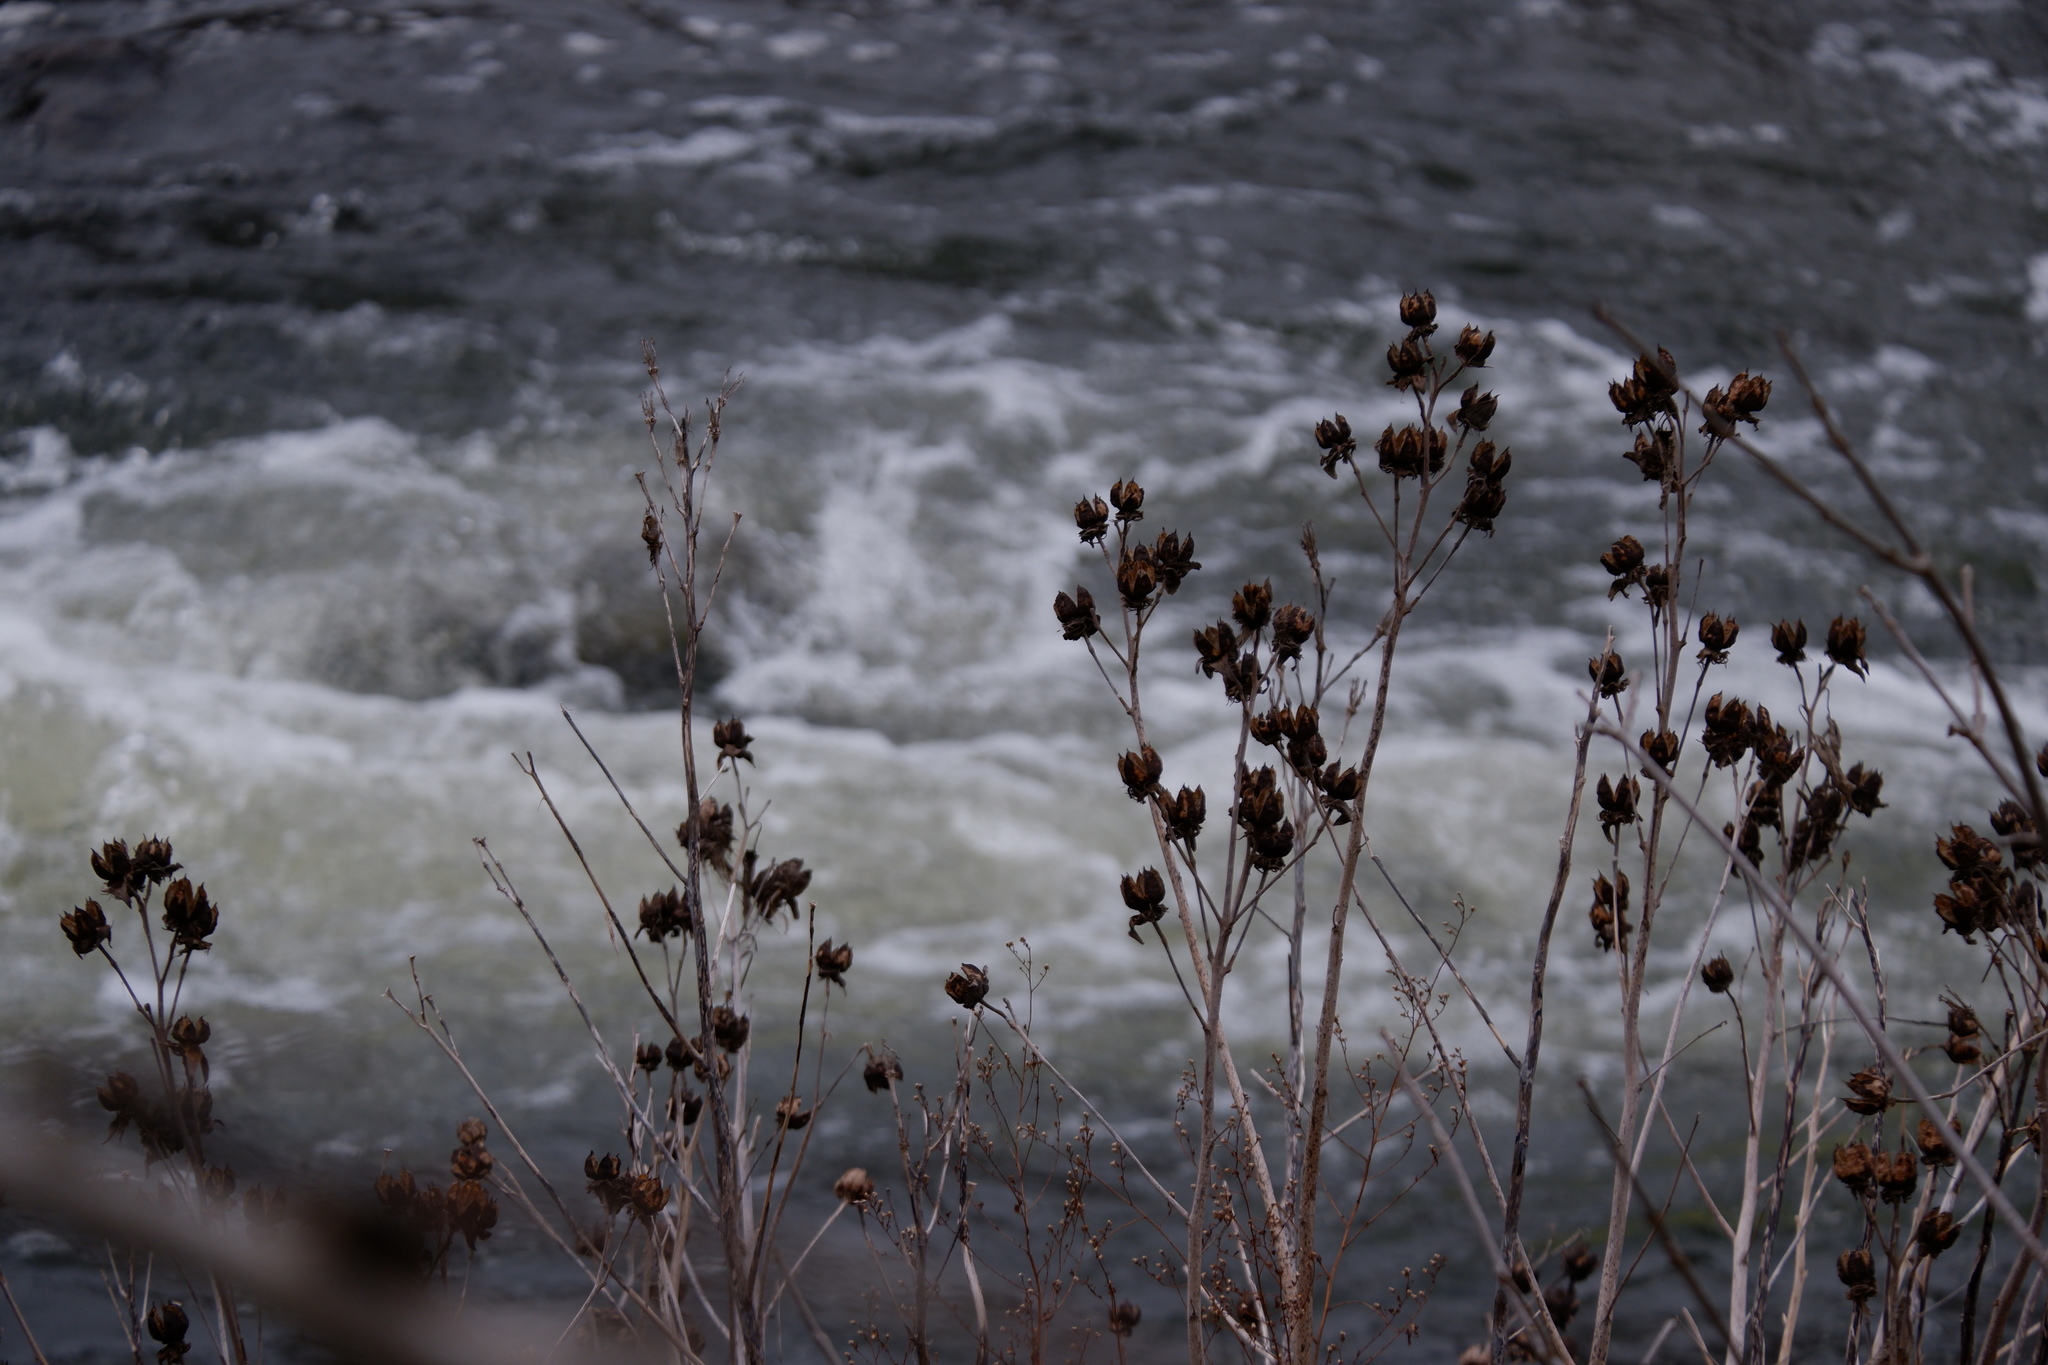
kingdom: Plantae
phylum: Tracheophyta
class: Magnoliopsida
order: Malvales
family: Malvaceae
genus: Hibiscus
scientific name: Hibiscus moscheutos
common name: Common rose-mallow
